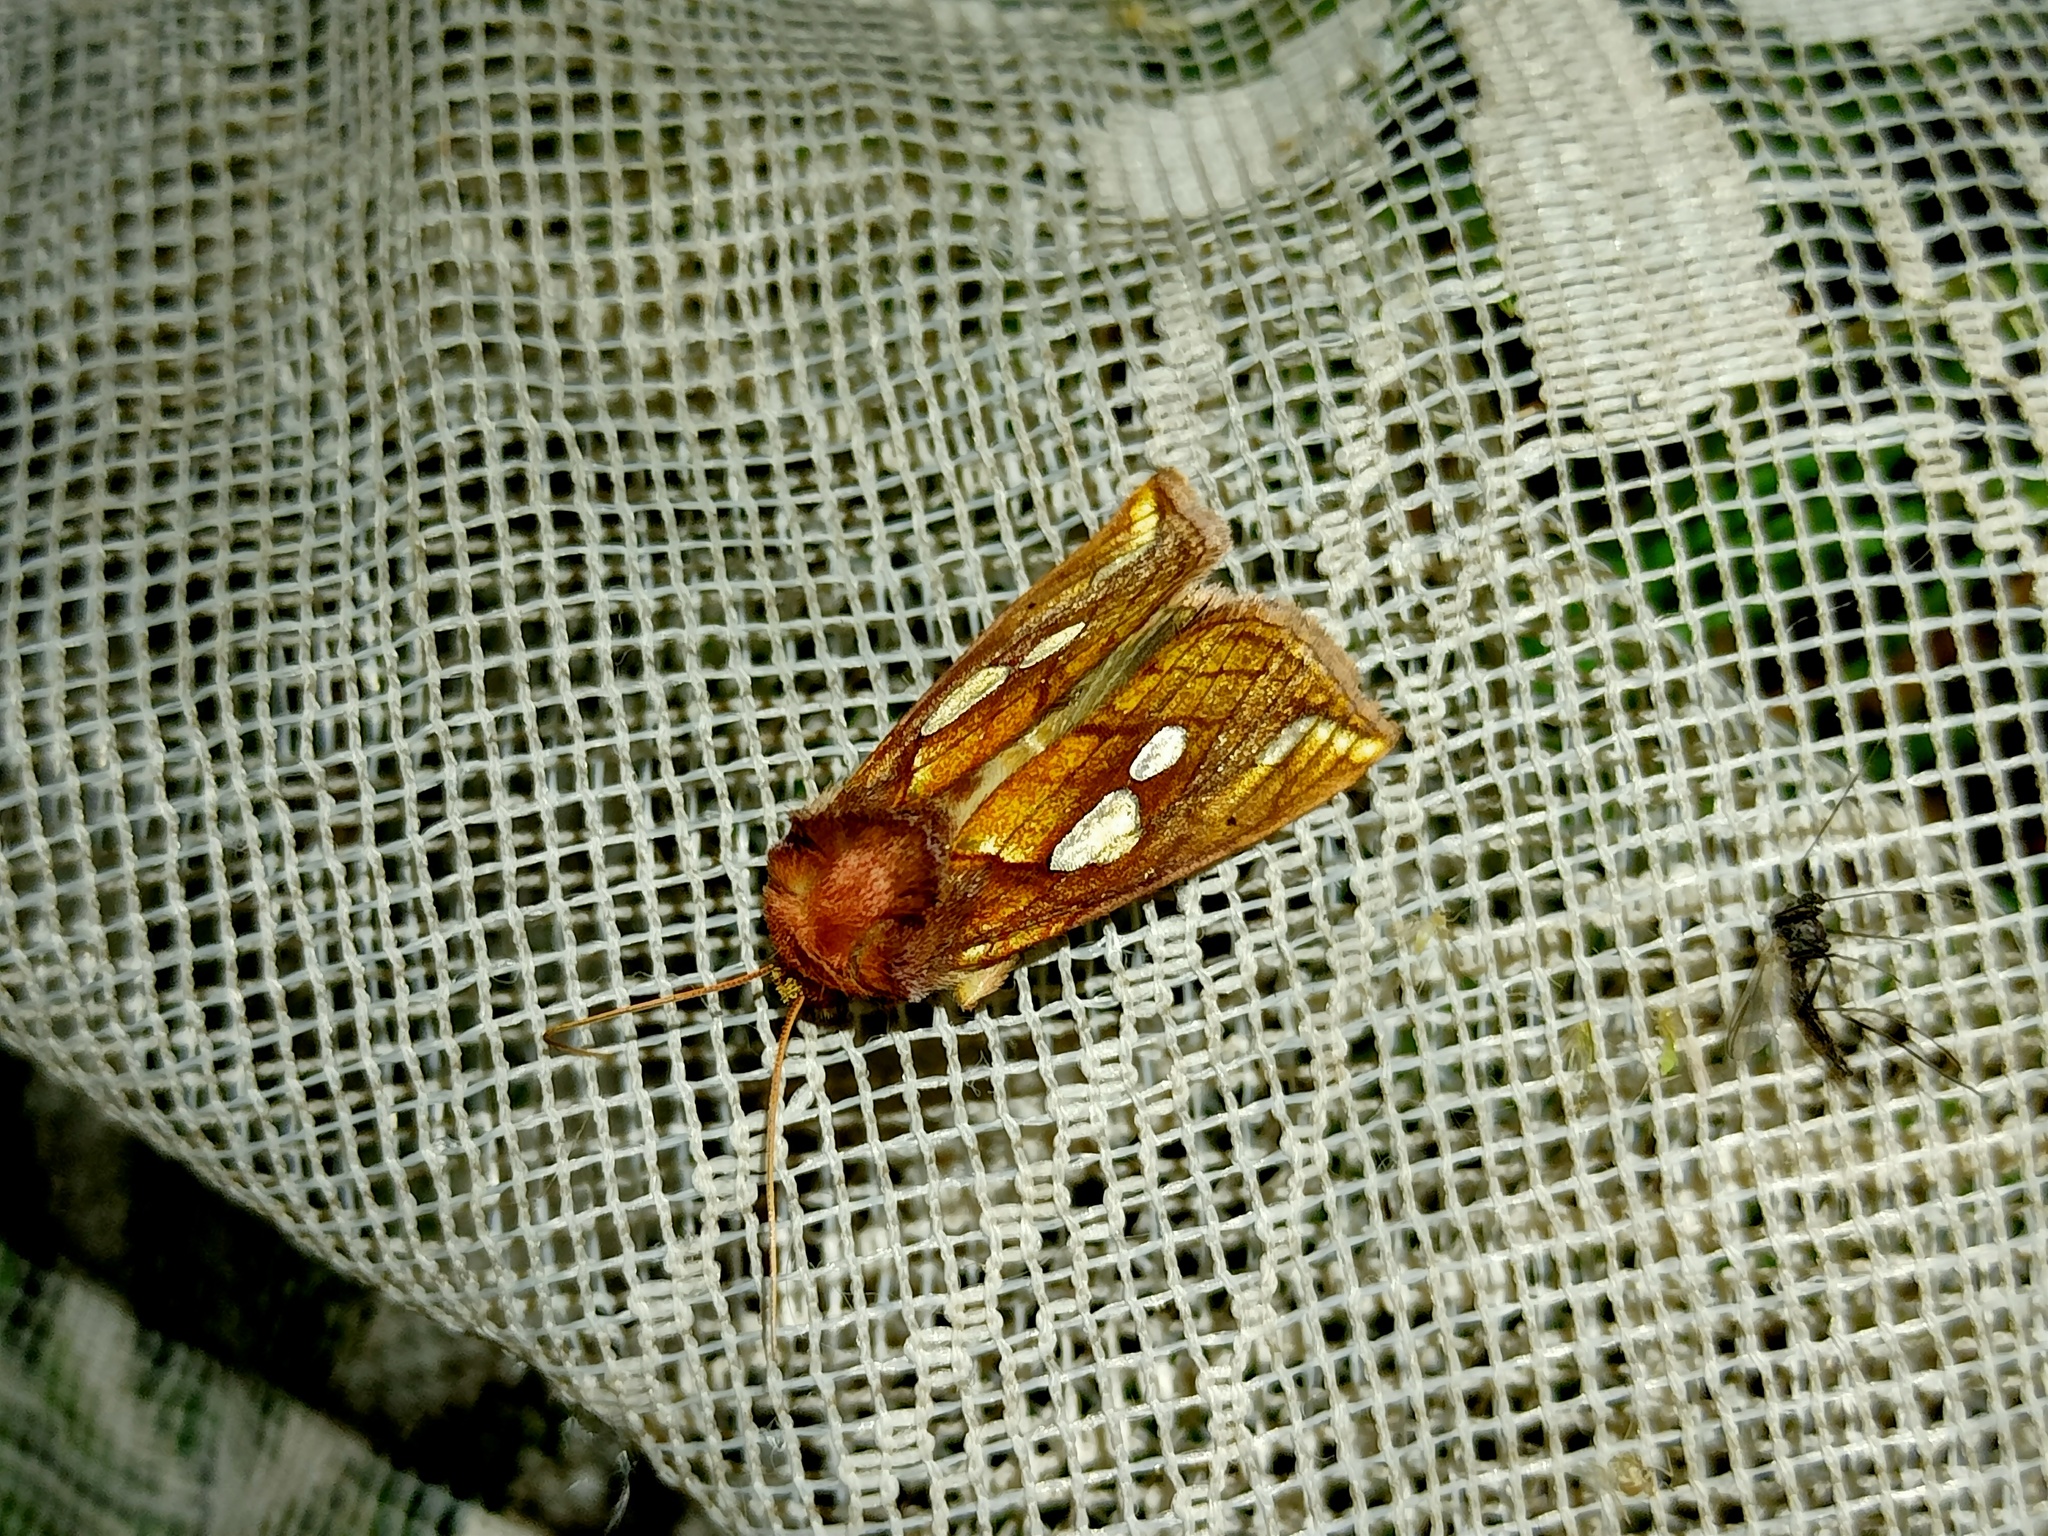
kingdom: Animalia
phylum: Arthropoda
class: Insecta
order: Lepidoptera
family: Noctuidae
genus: Plusia
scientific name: Plusia putnami
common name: Lempke's gold spot
